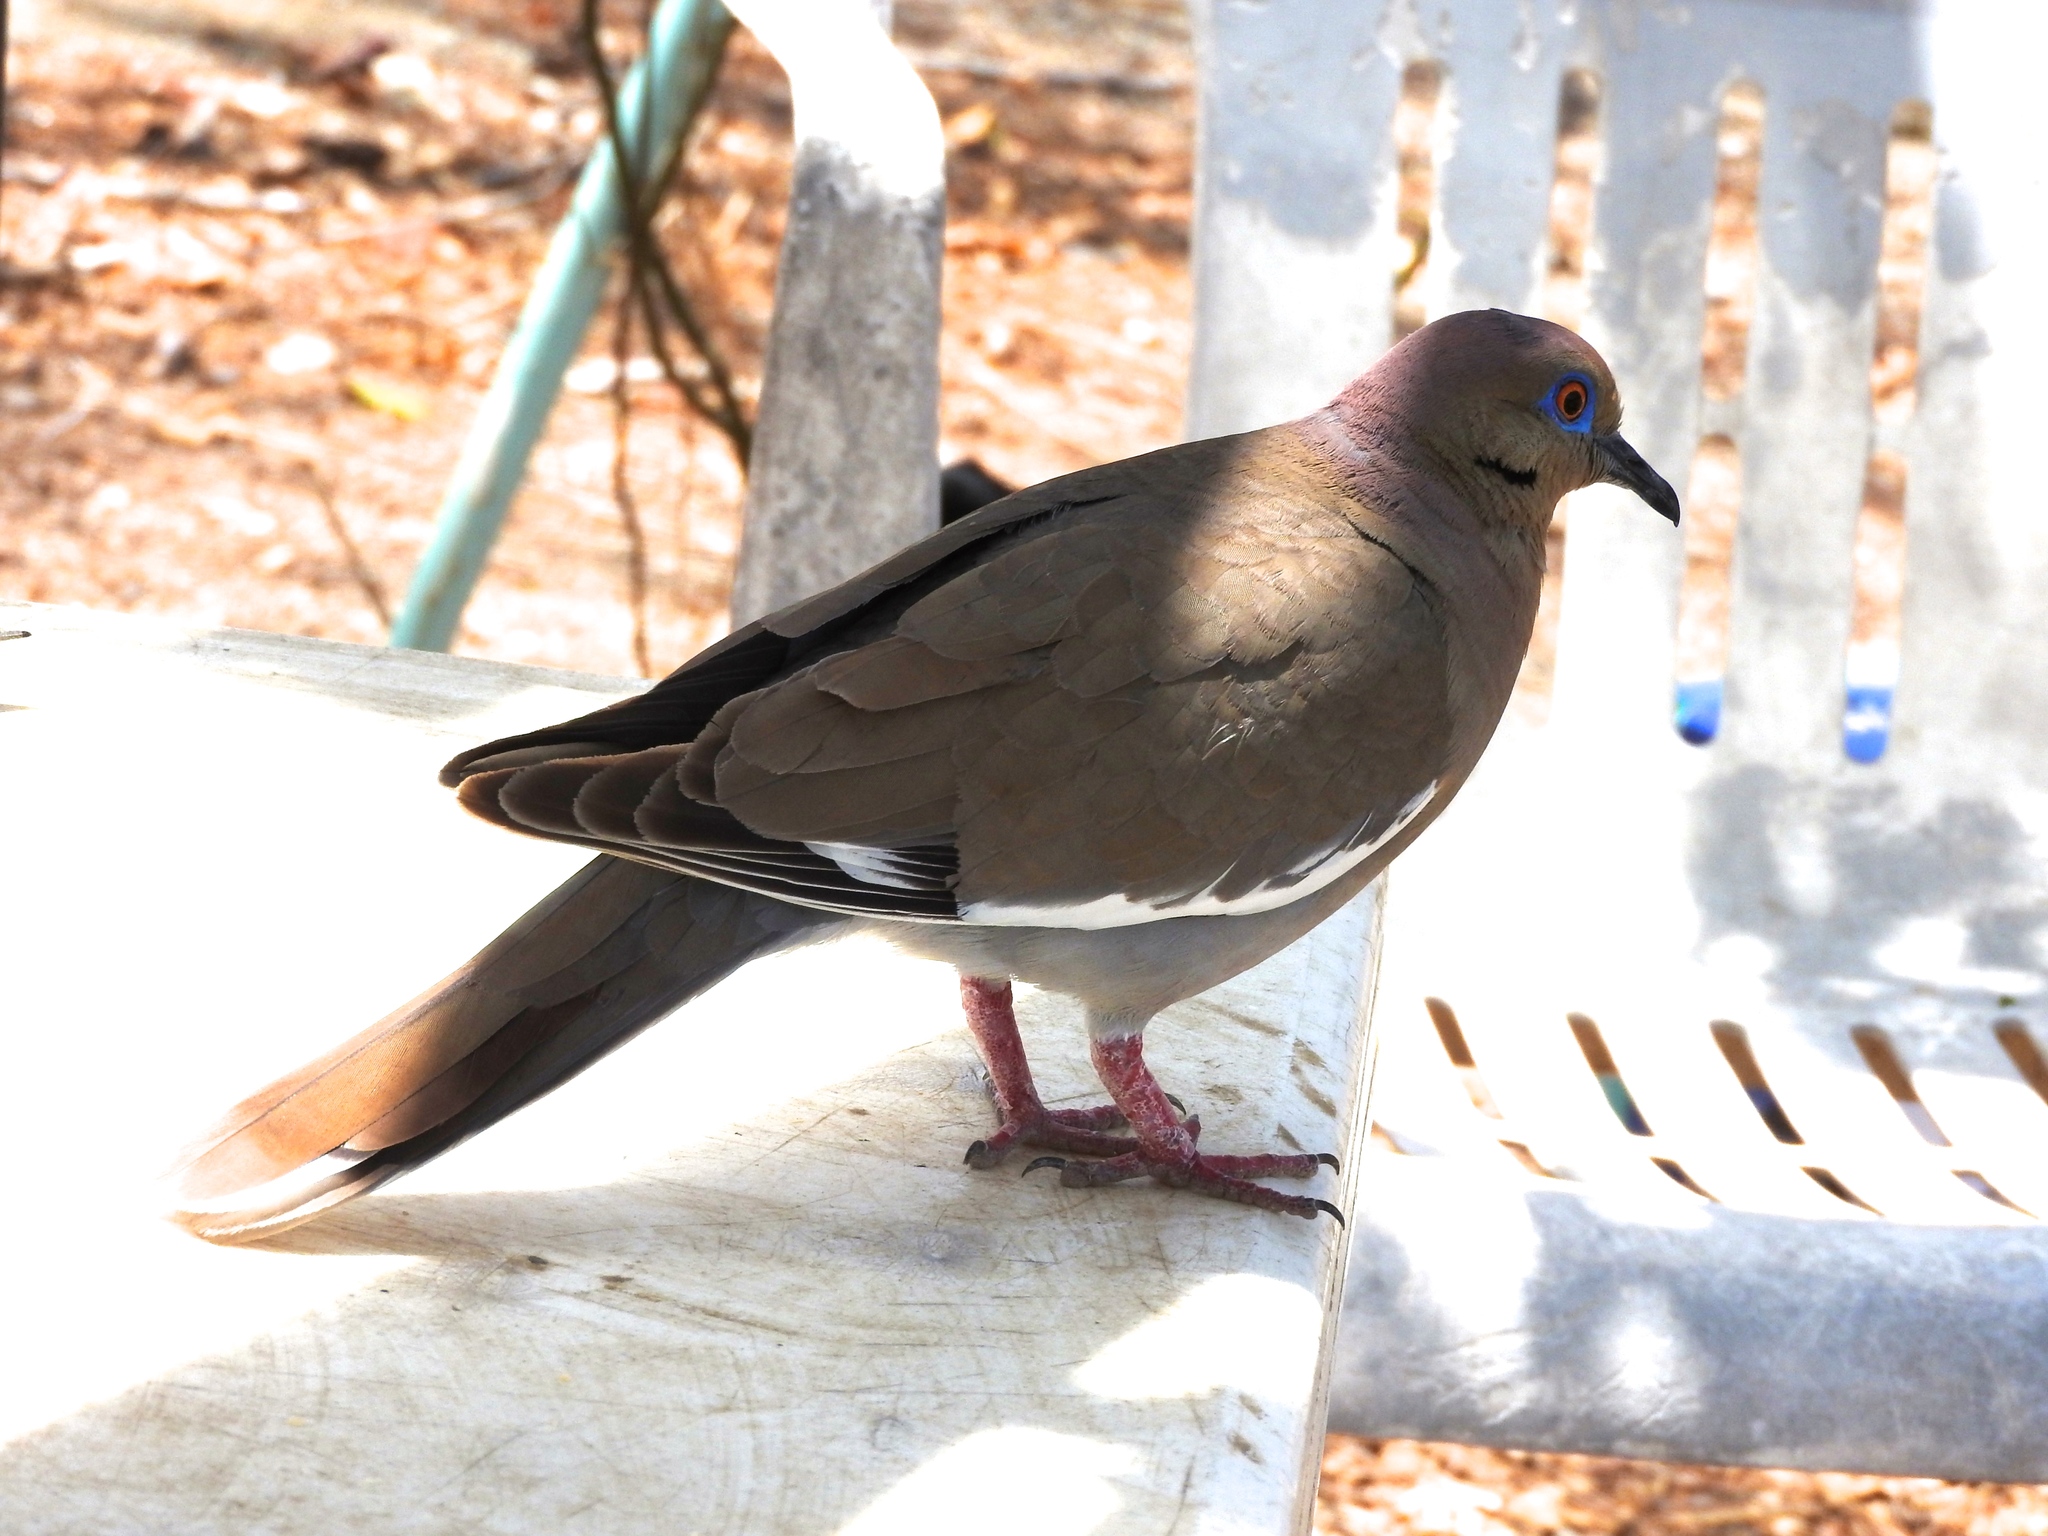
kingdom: Animalia
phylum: Chordata
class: Aves
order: Columbiformes
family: Columbidae
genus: Zenaida
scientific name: Zenaida asiatica
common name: White-winged dove
